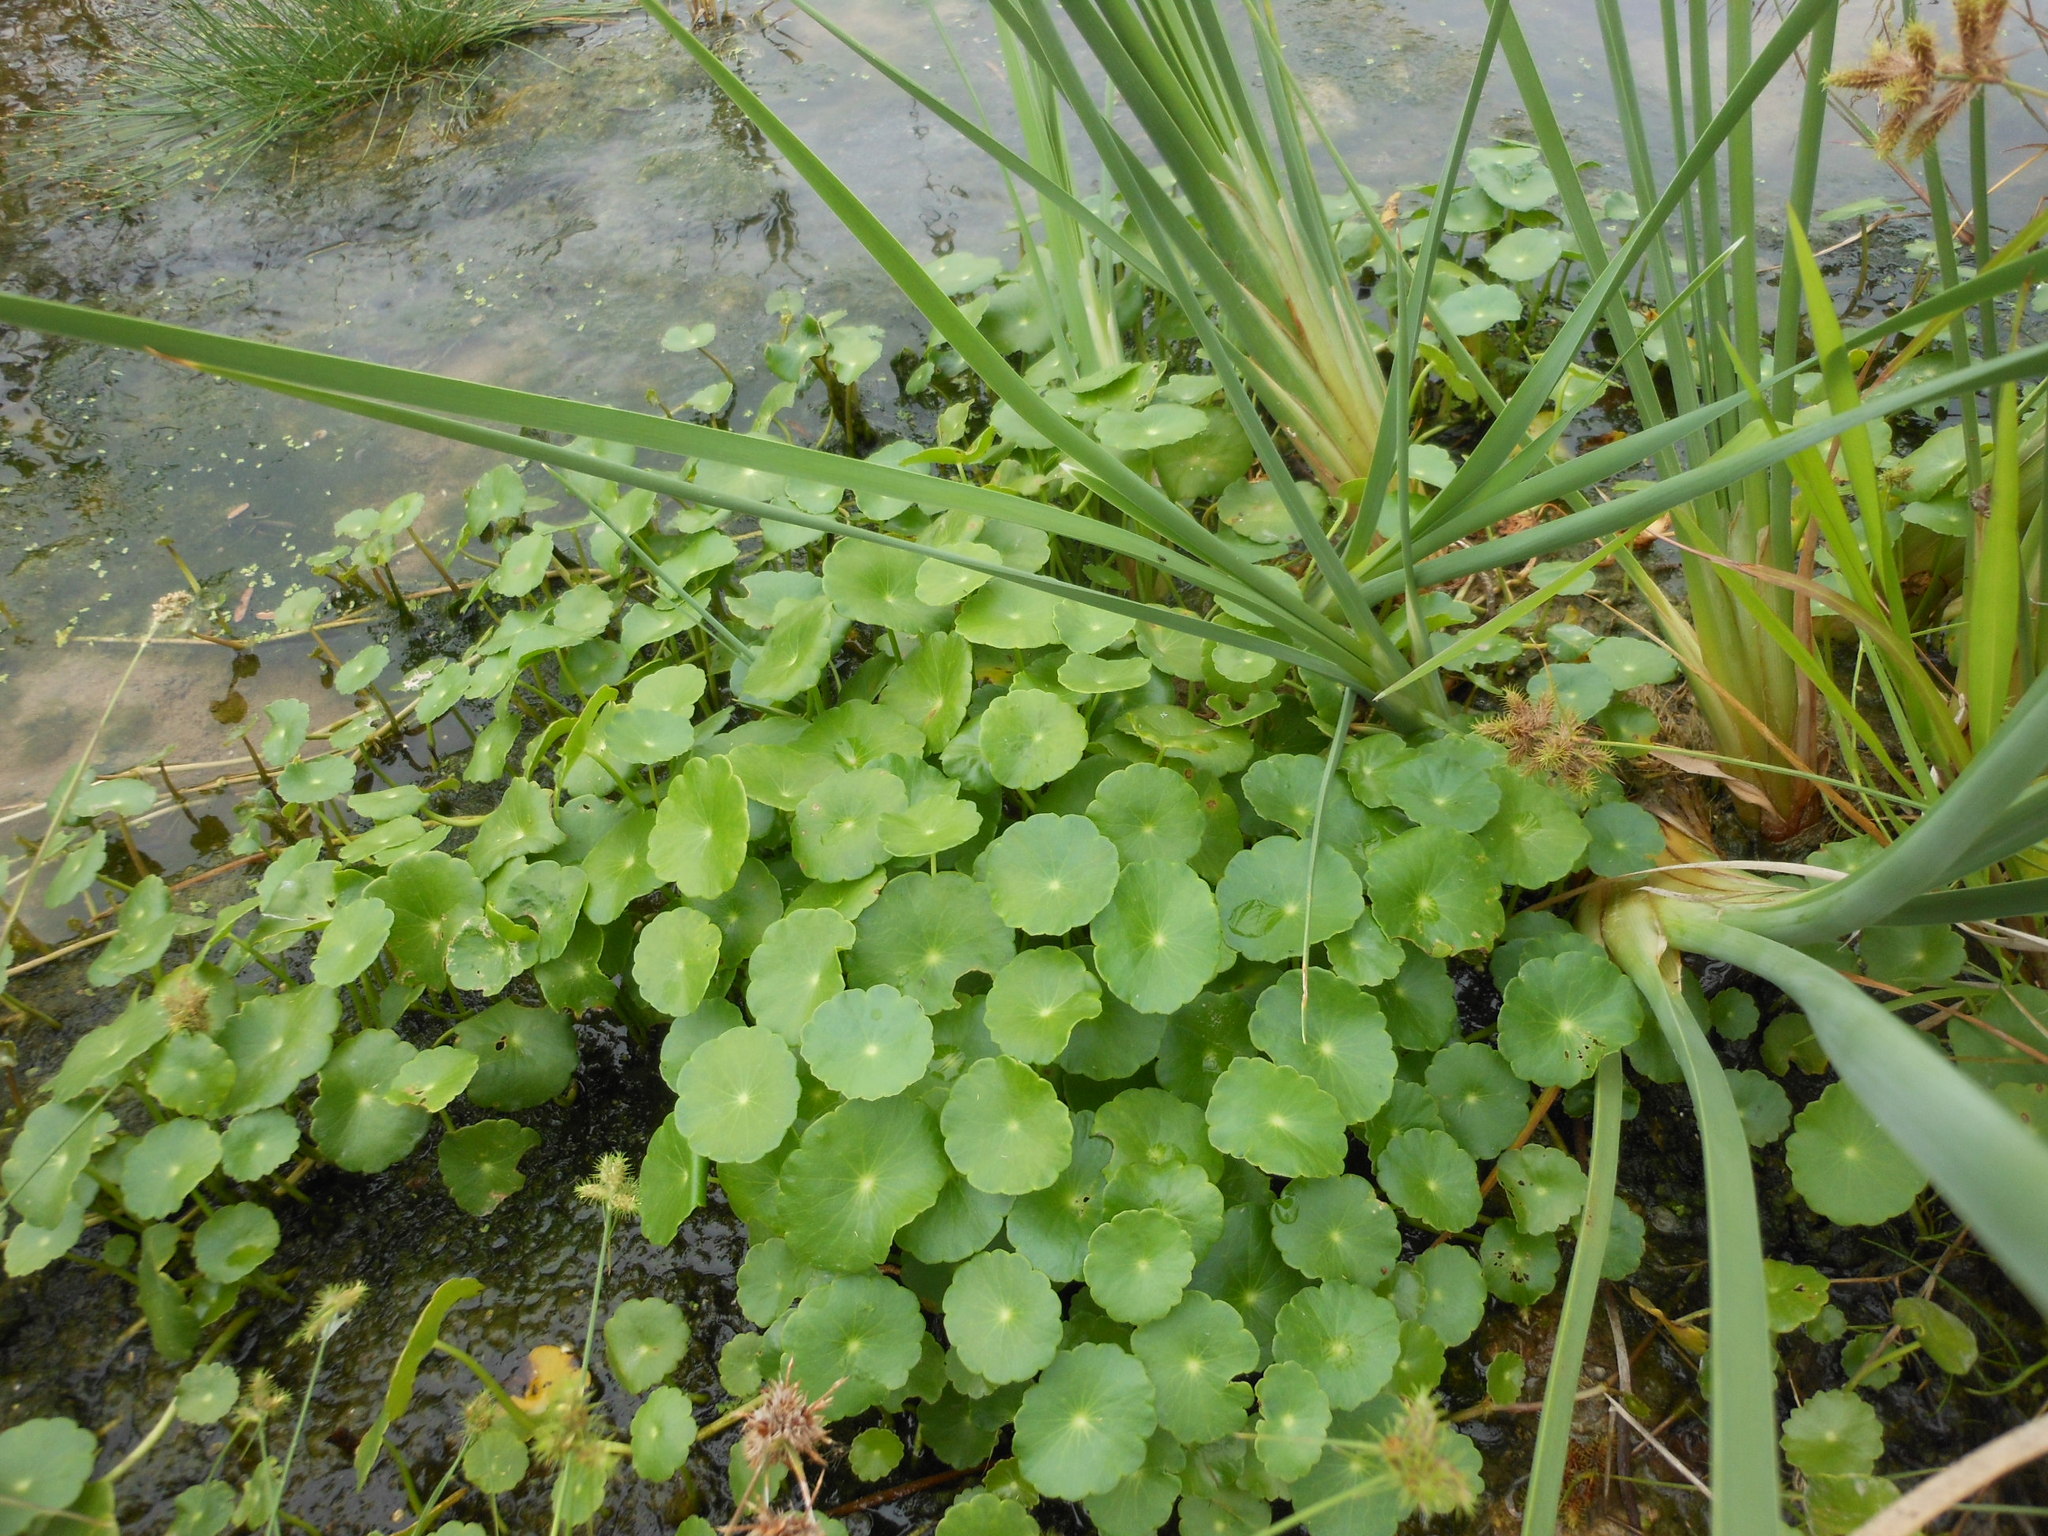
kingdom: Plantae
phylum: Tracheophyta
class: Magnoliopsida
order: Apiales
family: Araliaceae
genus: Hydrocotyle
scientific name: Hydrocotyle verticillata
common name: Whorled marshpennywort
